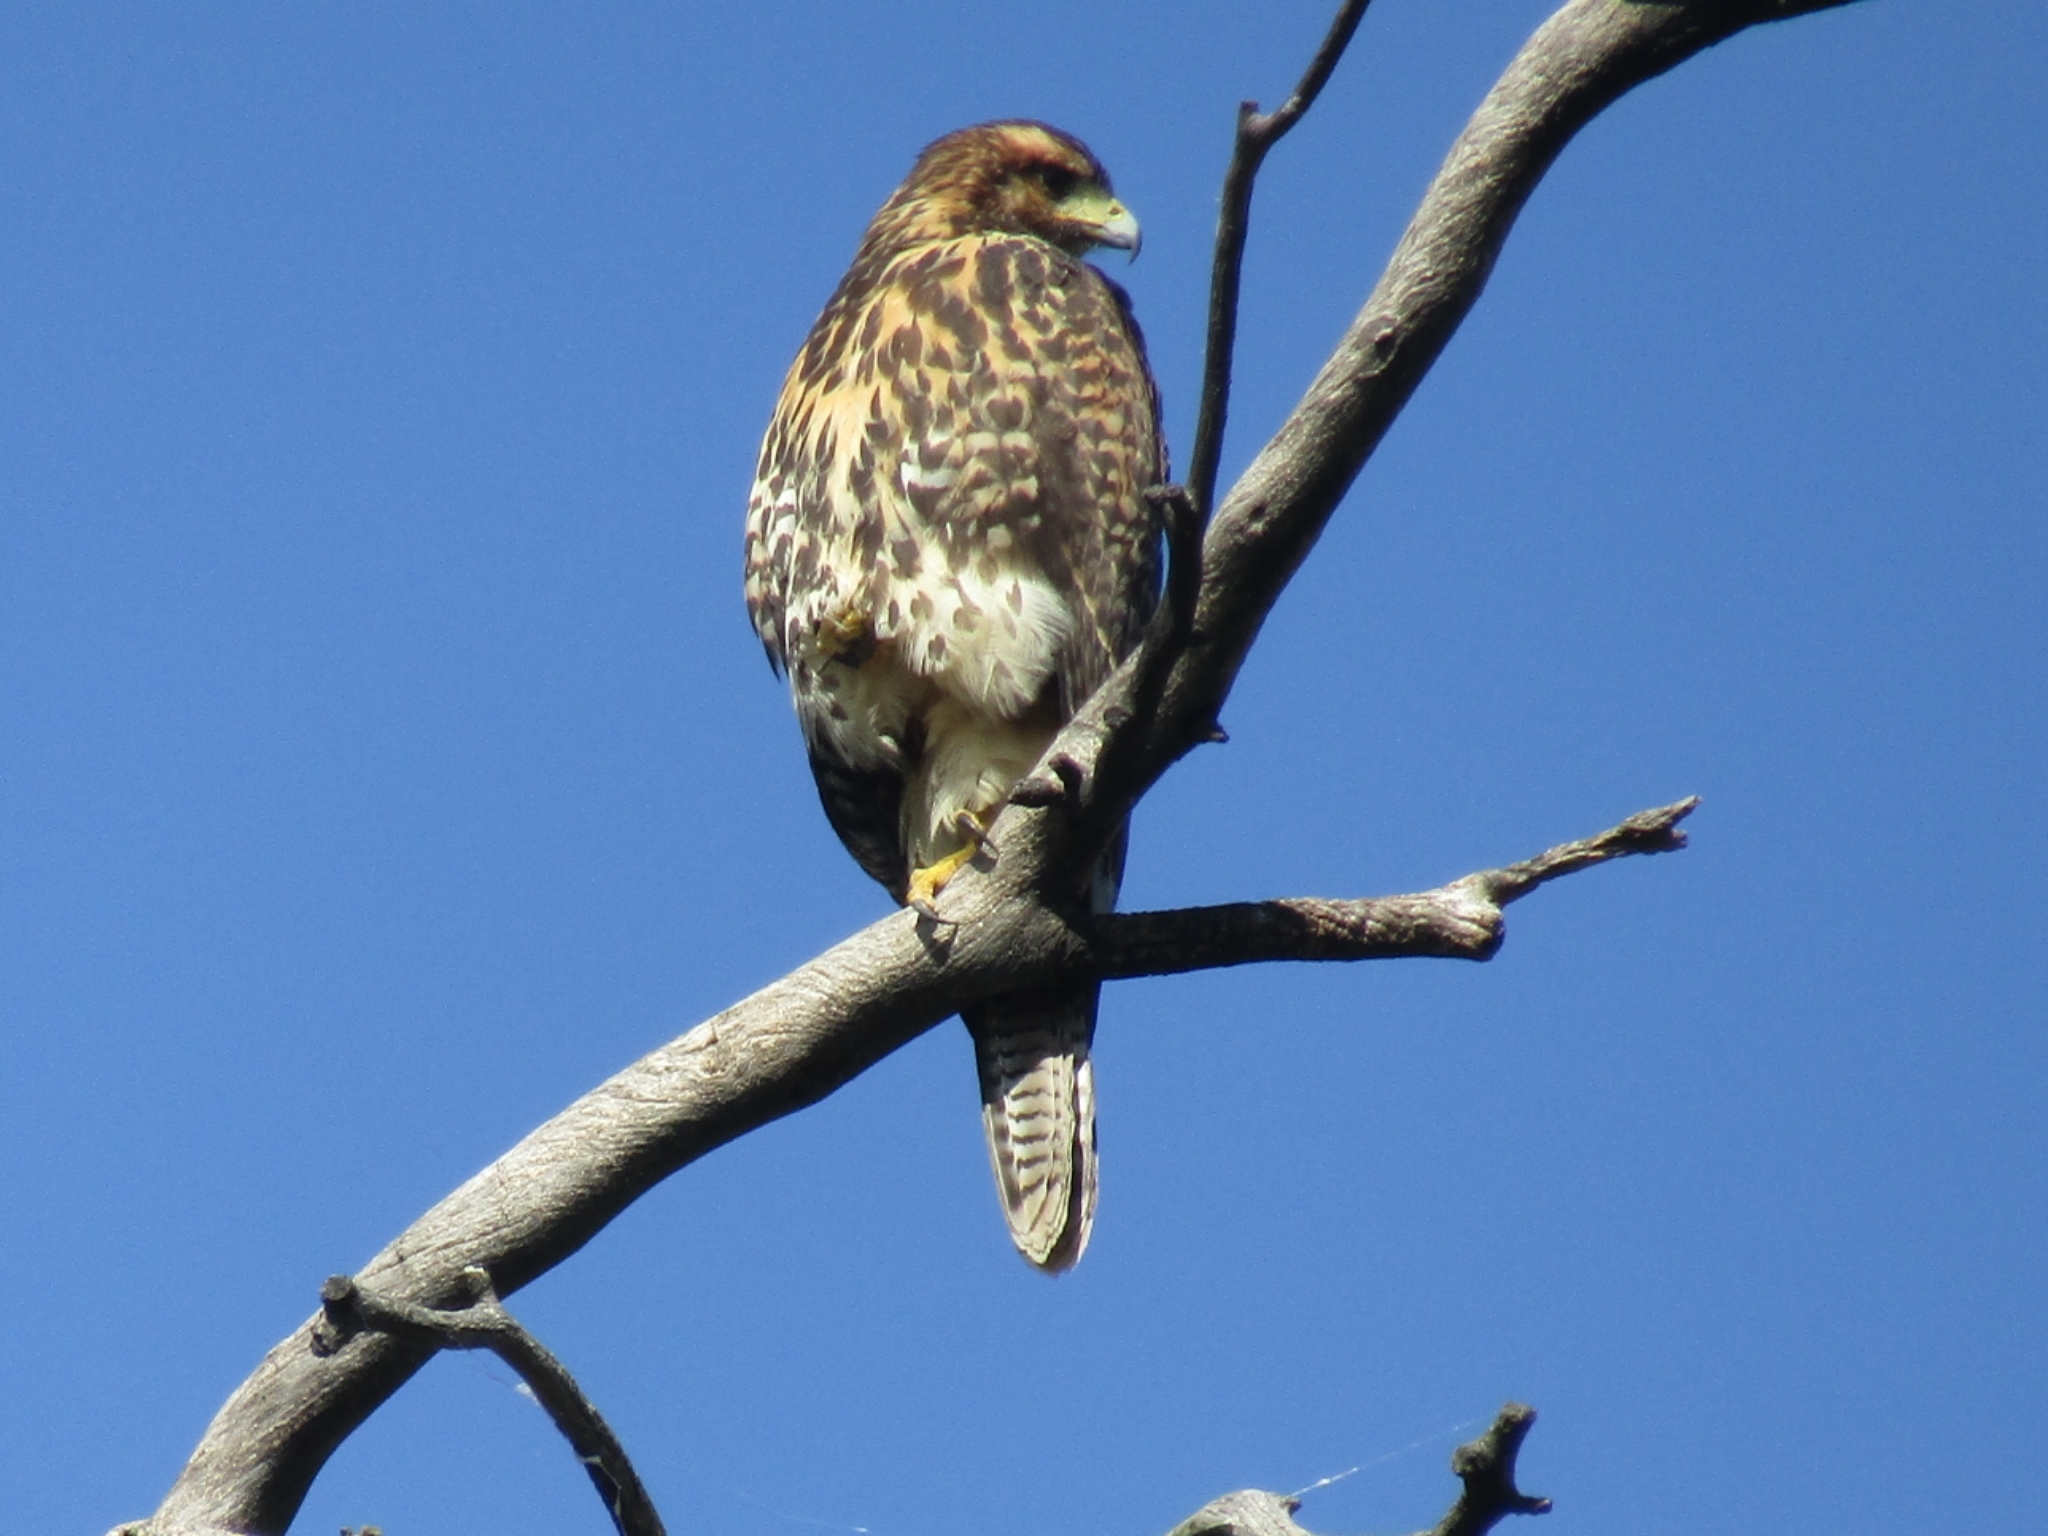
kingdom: Animalia
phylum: Chordata
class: Aves
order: Accipitriformes
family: Accipitridae
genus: Parabuteo
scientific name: Parabuteo unicinctus
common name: Harris's hawk
